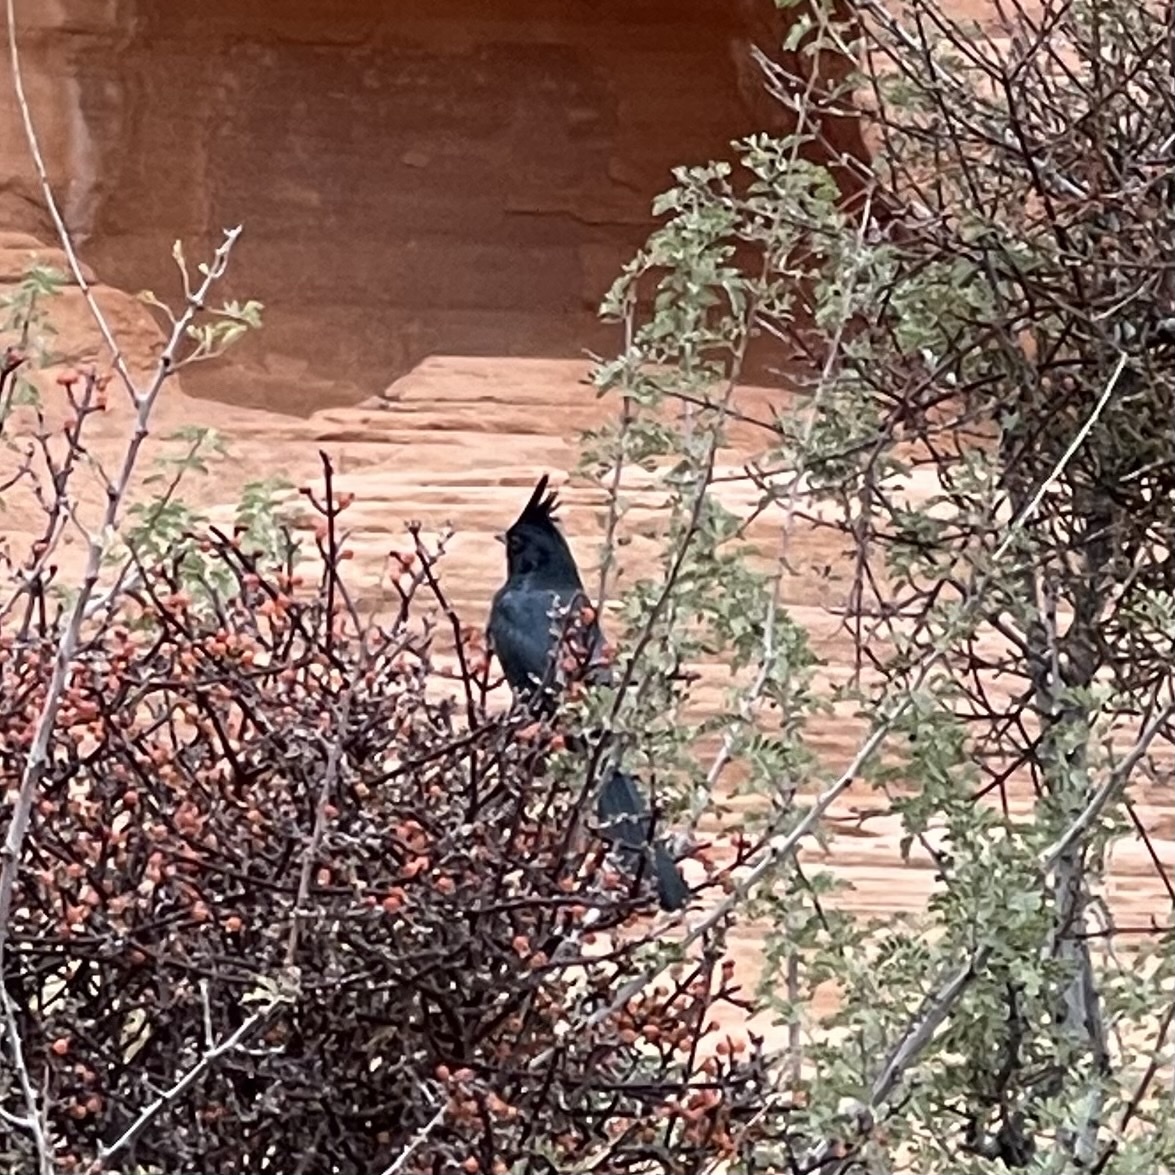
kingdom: Animalia
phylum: Chordata
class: Aves
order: Passeriformes
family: Ptilogonatidae
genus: Phainopepla
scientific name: Phainopepla nitens
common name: Phainopepla
